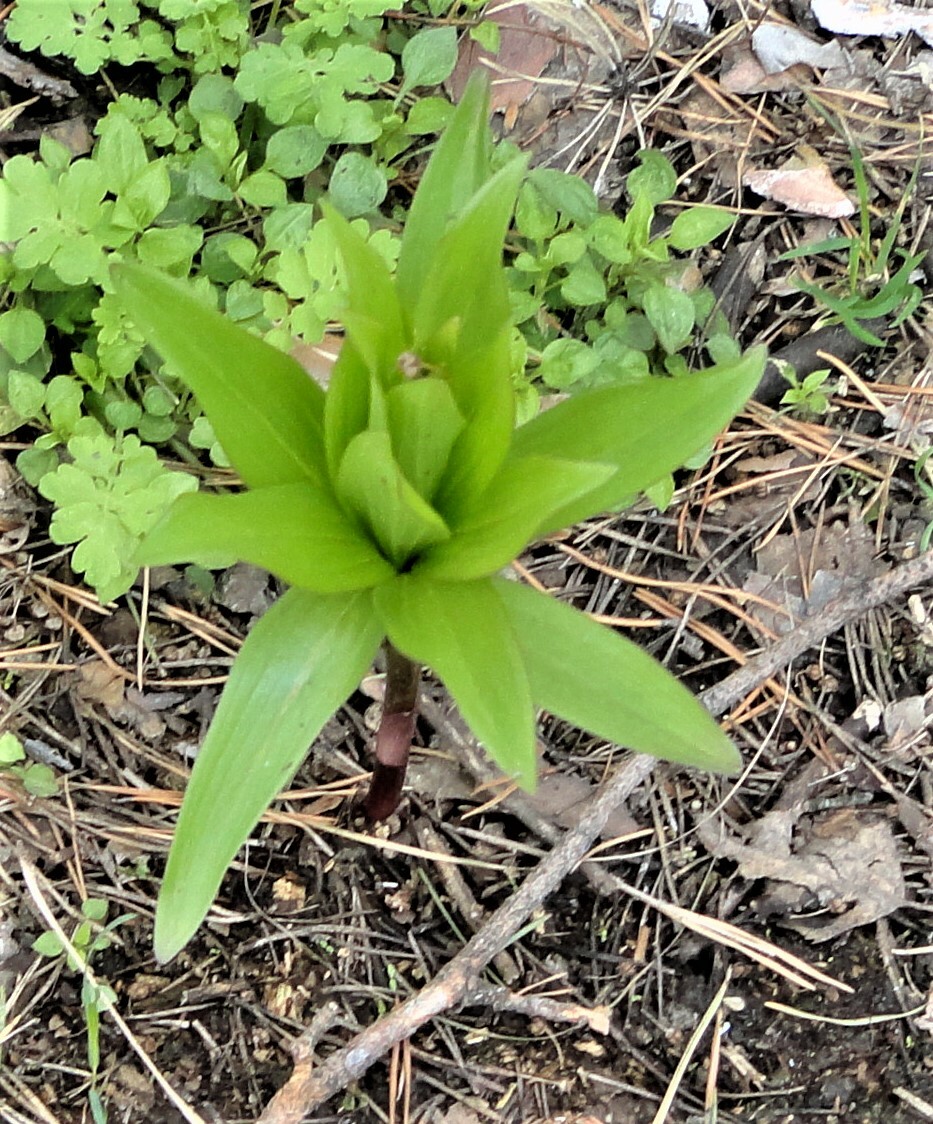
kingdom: Plantae
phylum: Tracheophyta
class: Liliopsida
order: Liliales
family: Liliaceae
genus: Lilium
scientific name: Lilium martagon
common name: Martagon lily
